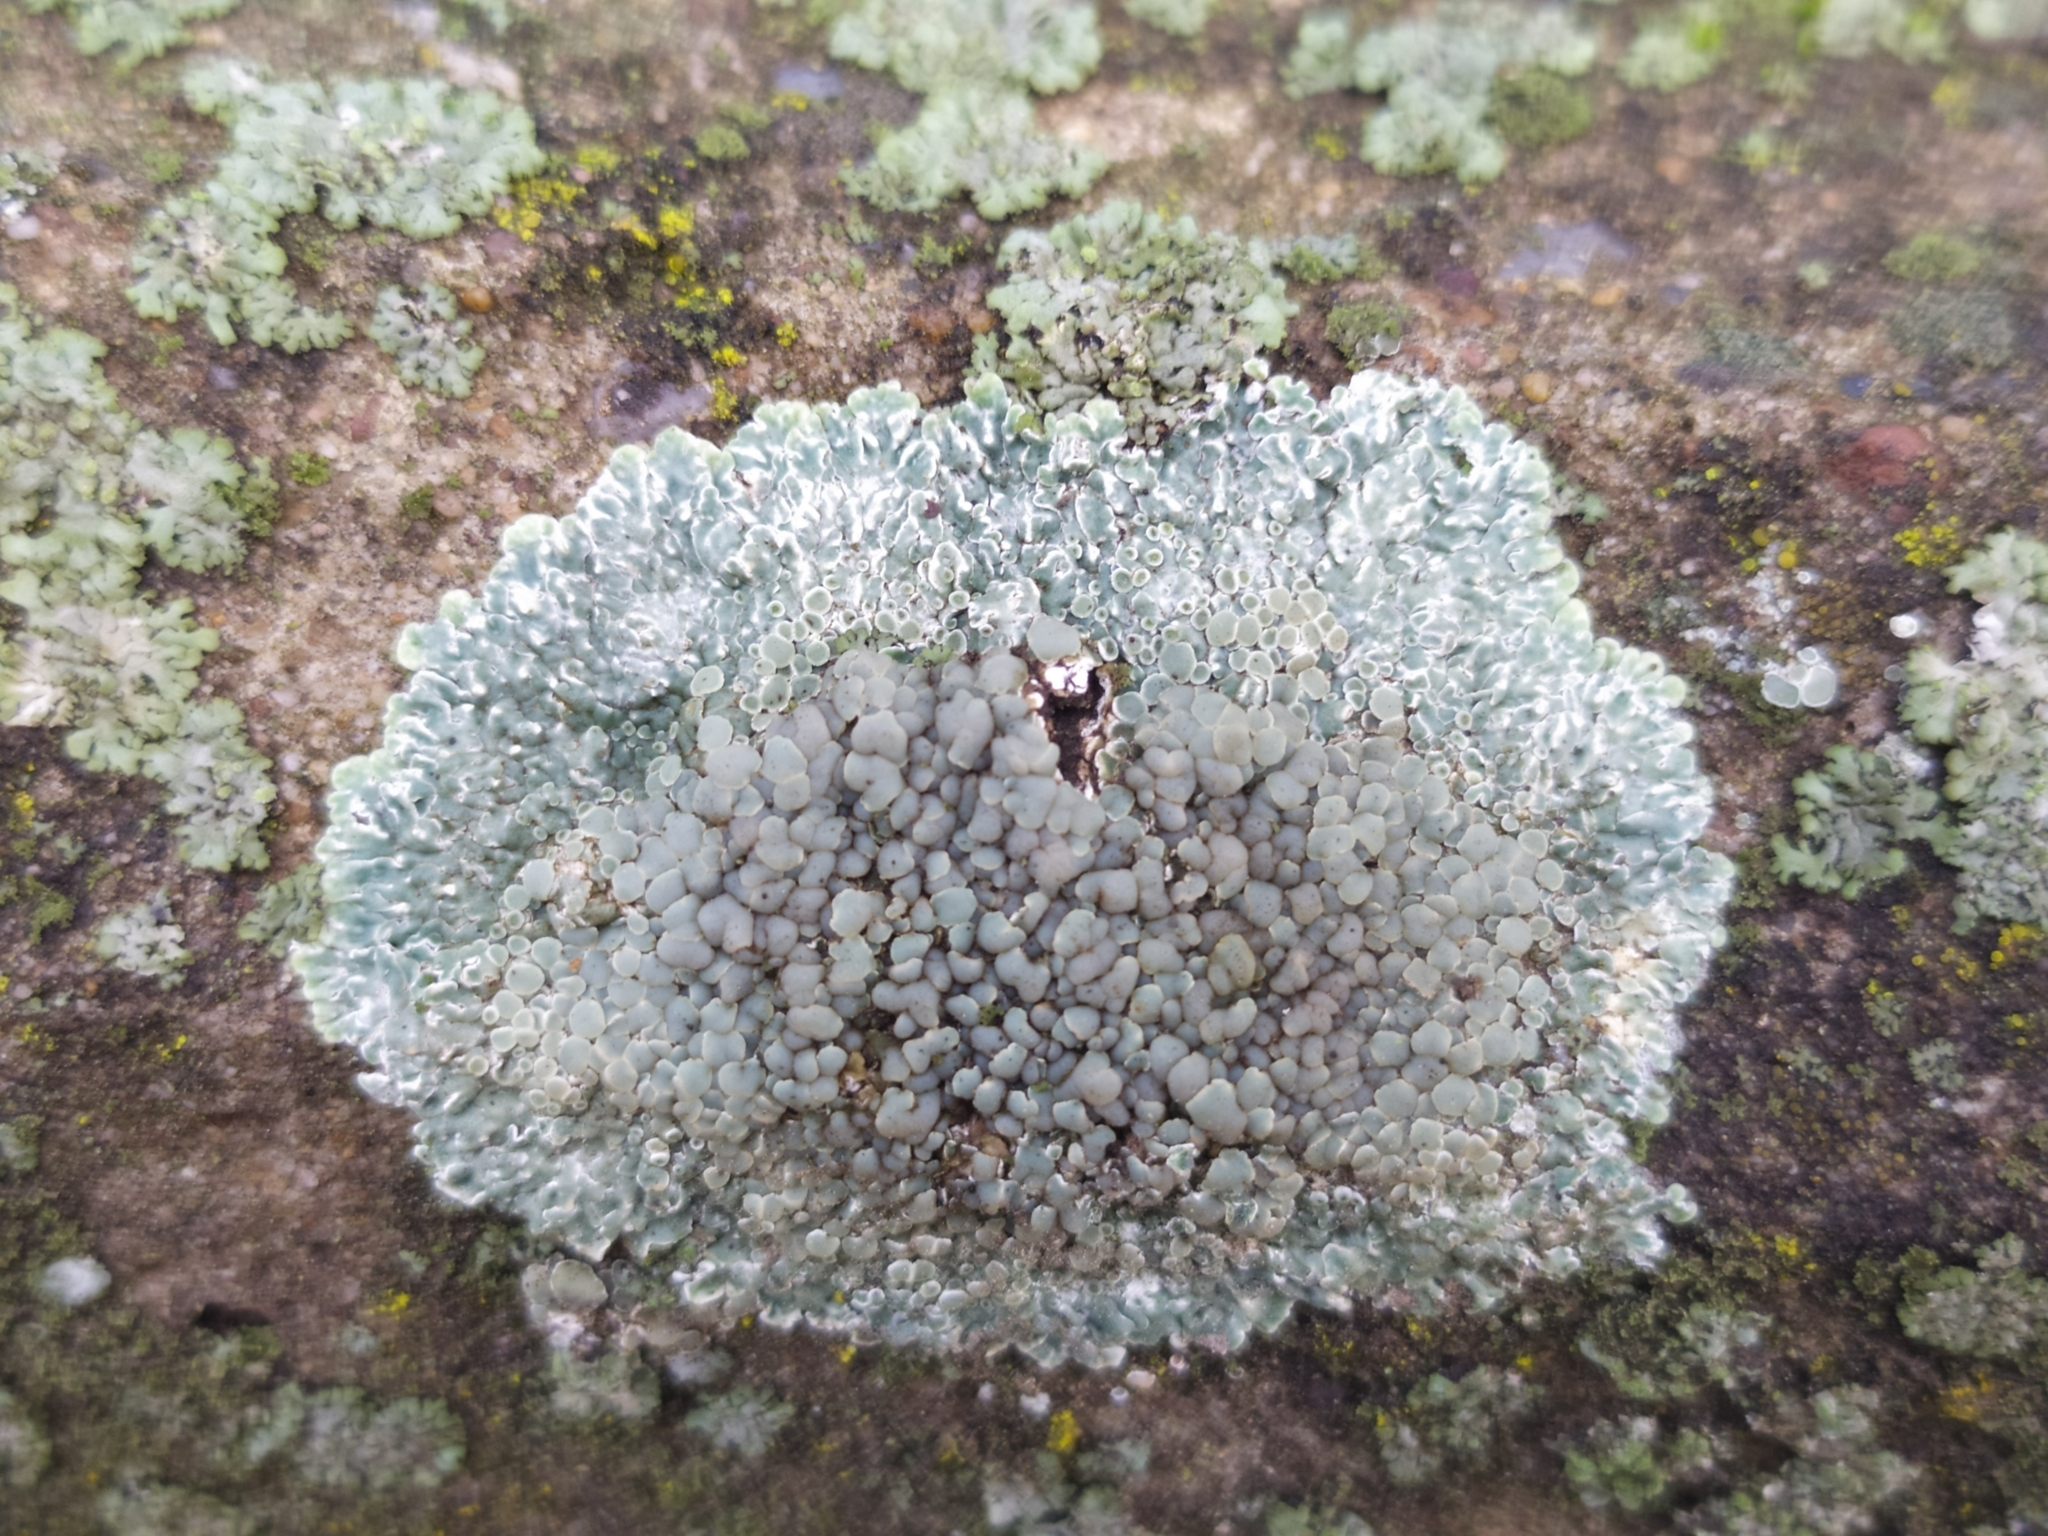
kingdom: Fungi
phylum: Ascomycota
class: Lecanoromycetes
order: Lecanorales
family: Lecanoraceae
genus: Protoparmeliopsis
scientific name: Protoparmeliopsis muralis
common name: Stonewall rim lichen
